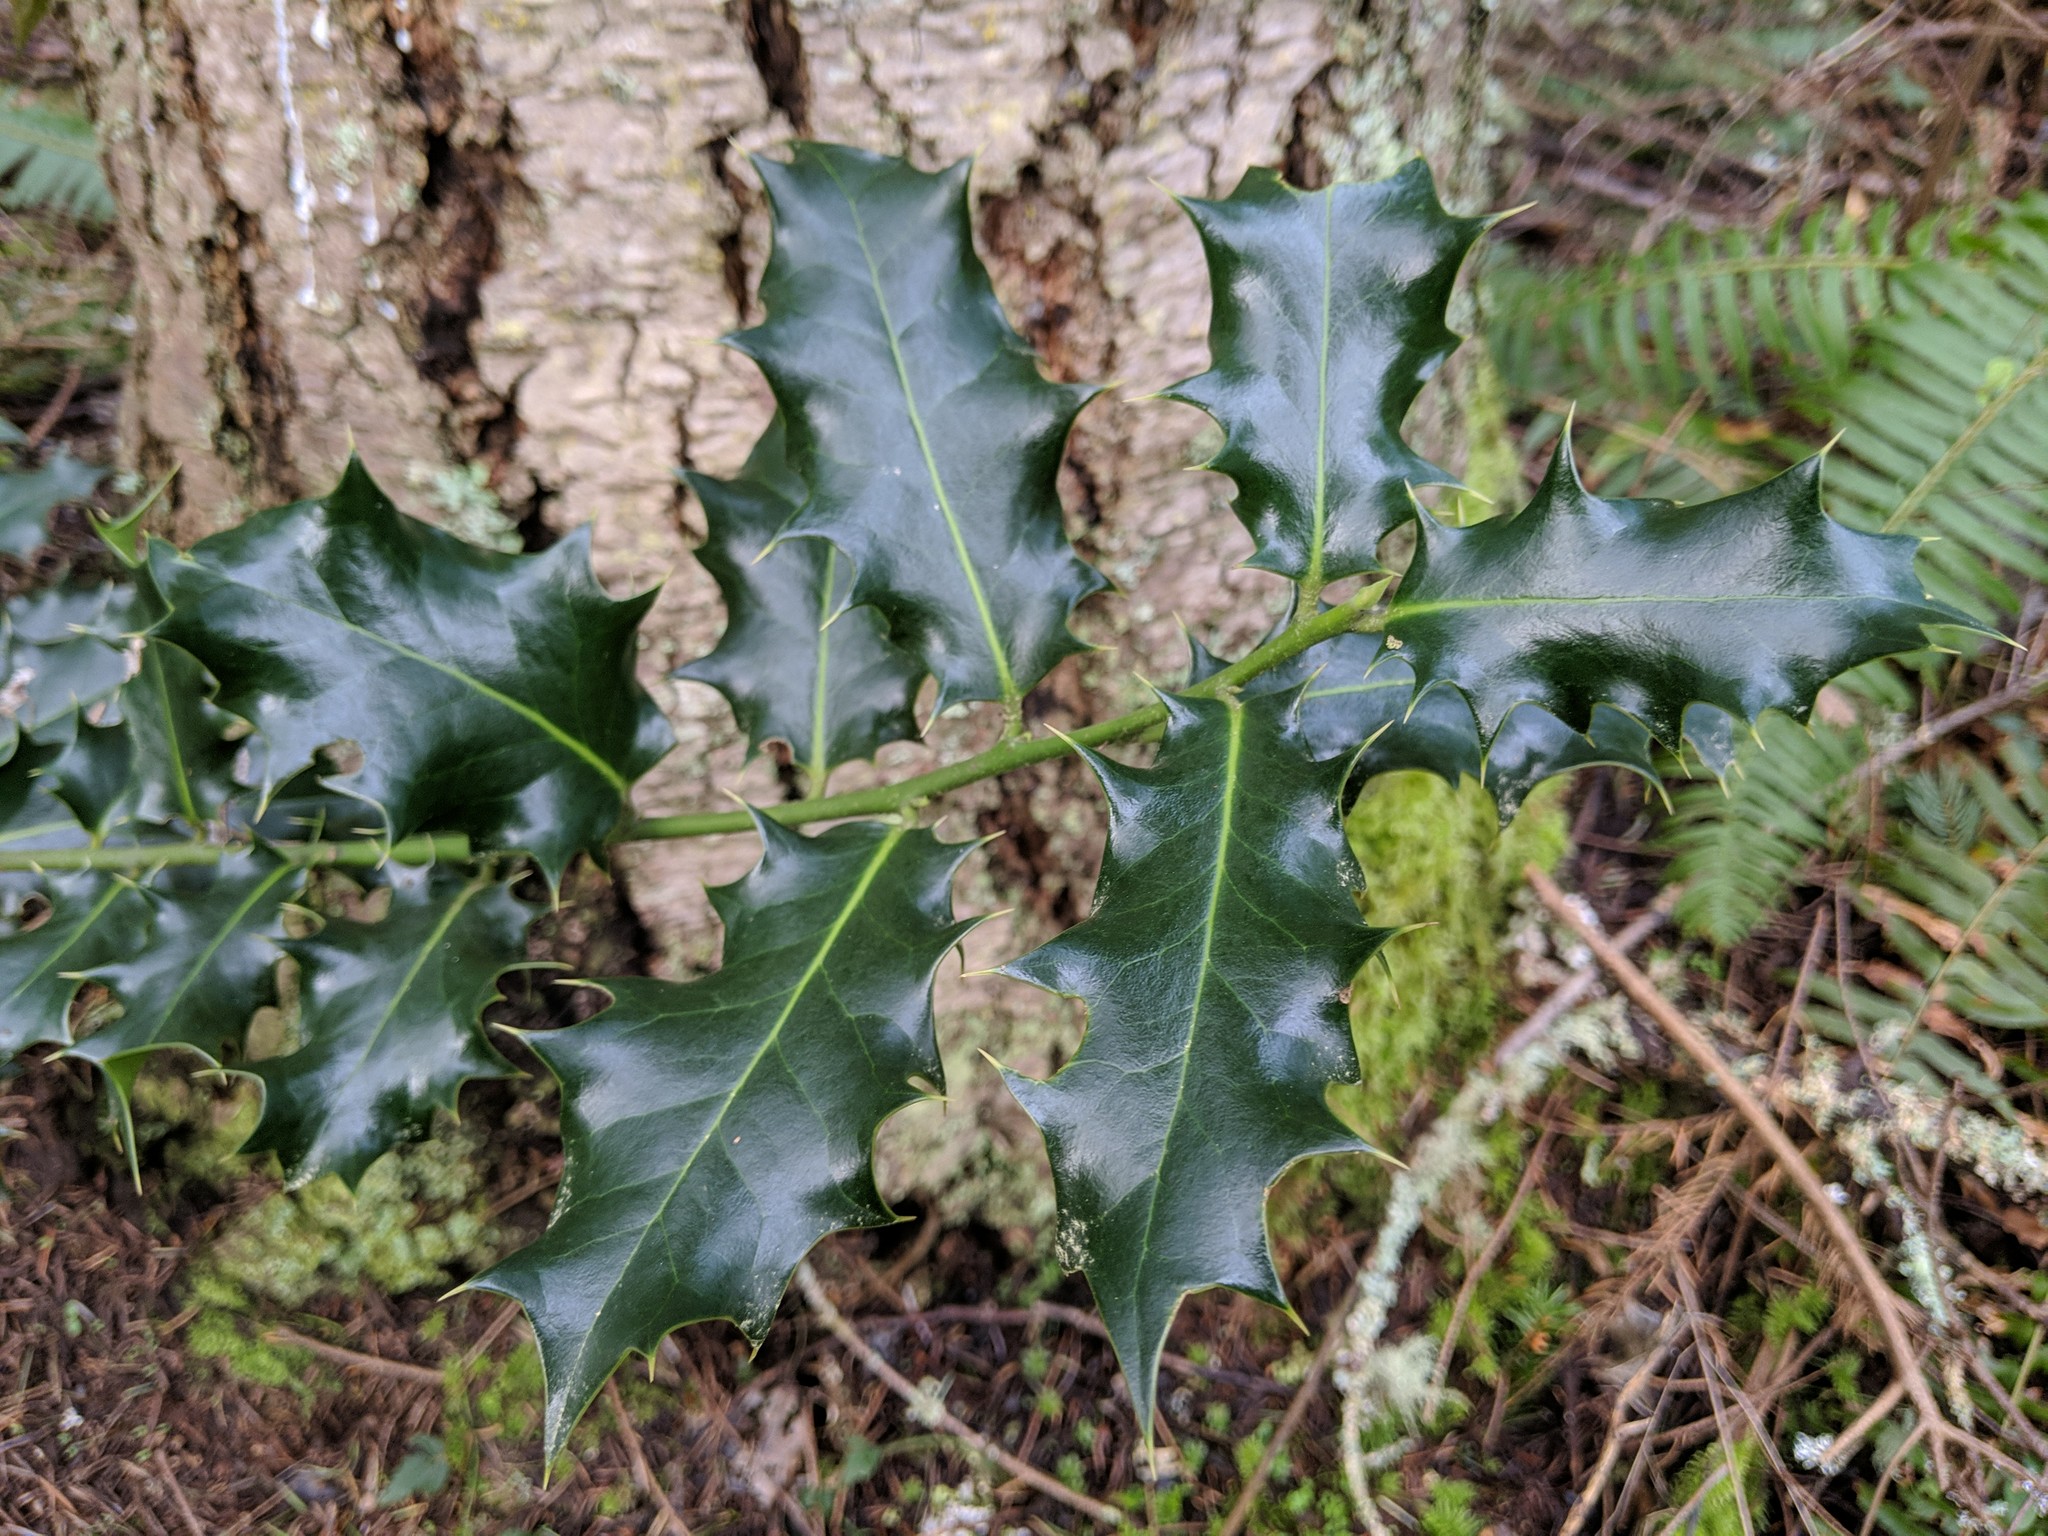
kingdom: Plantae
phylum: Tracheophyta
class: Magnoliopsida
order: Aquifoliales
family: Aquifoliaceae
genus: Ilex
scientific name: Ilex aquifolium
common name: English holly
